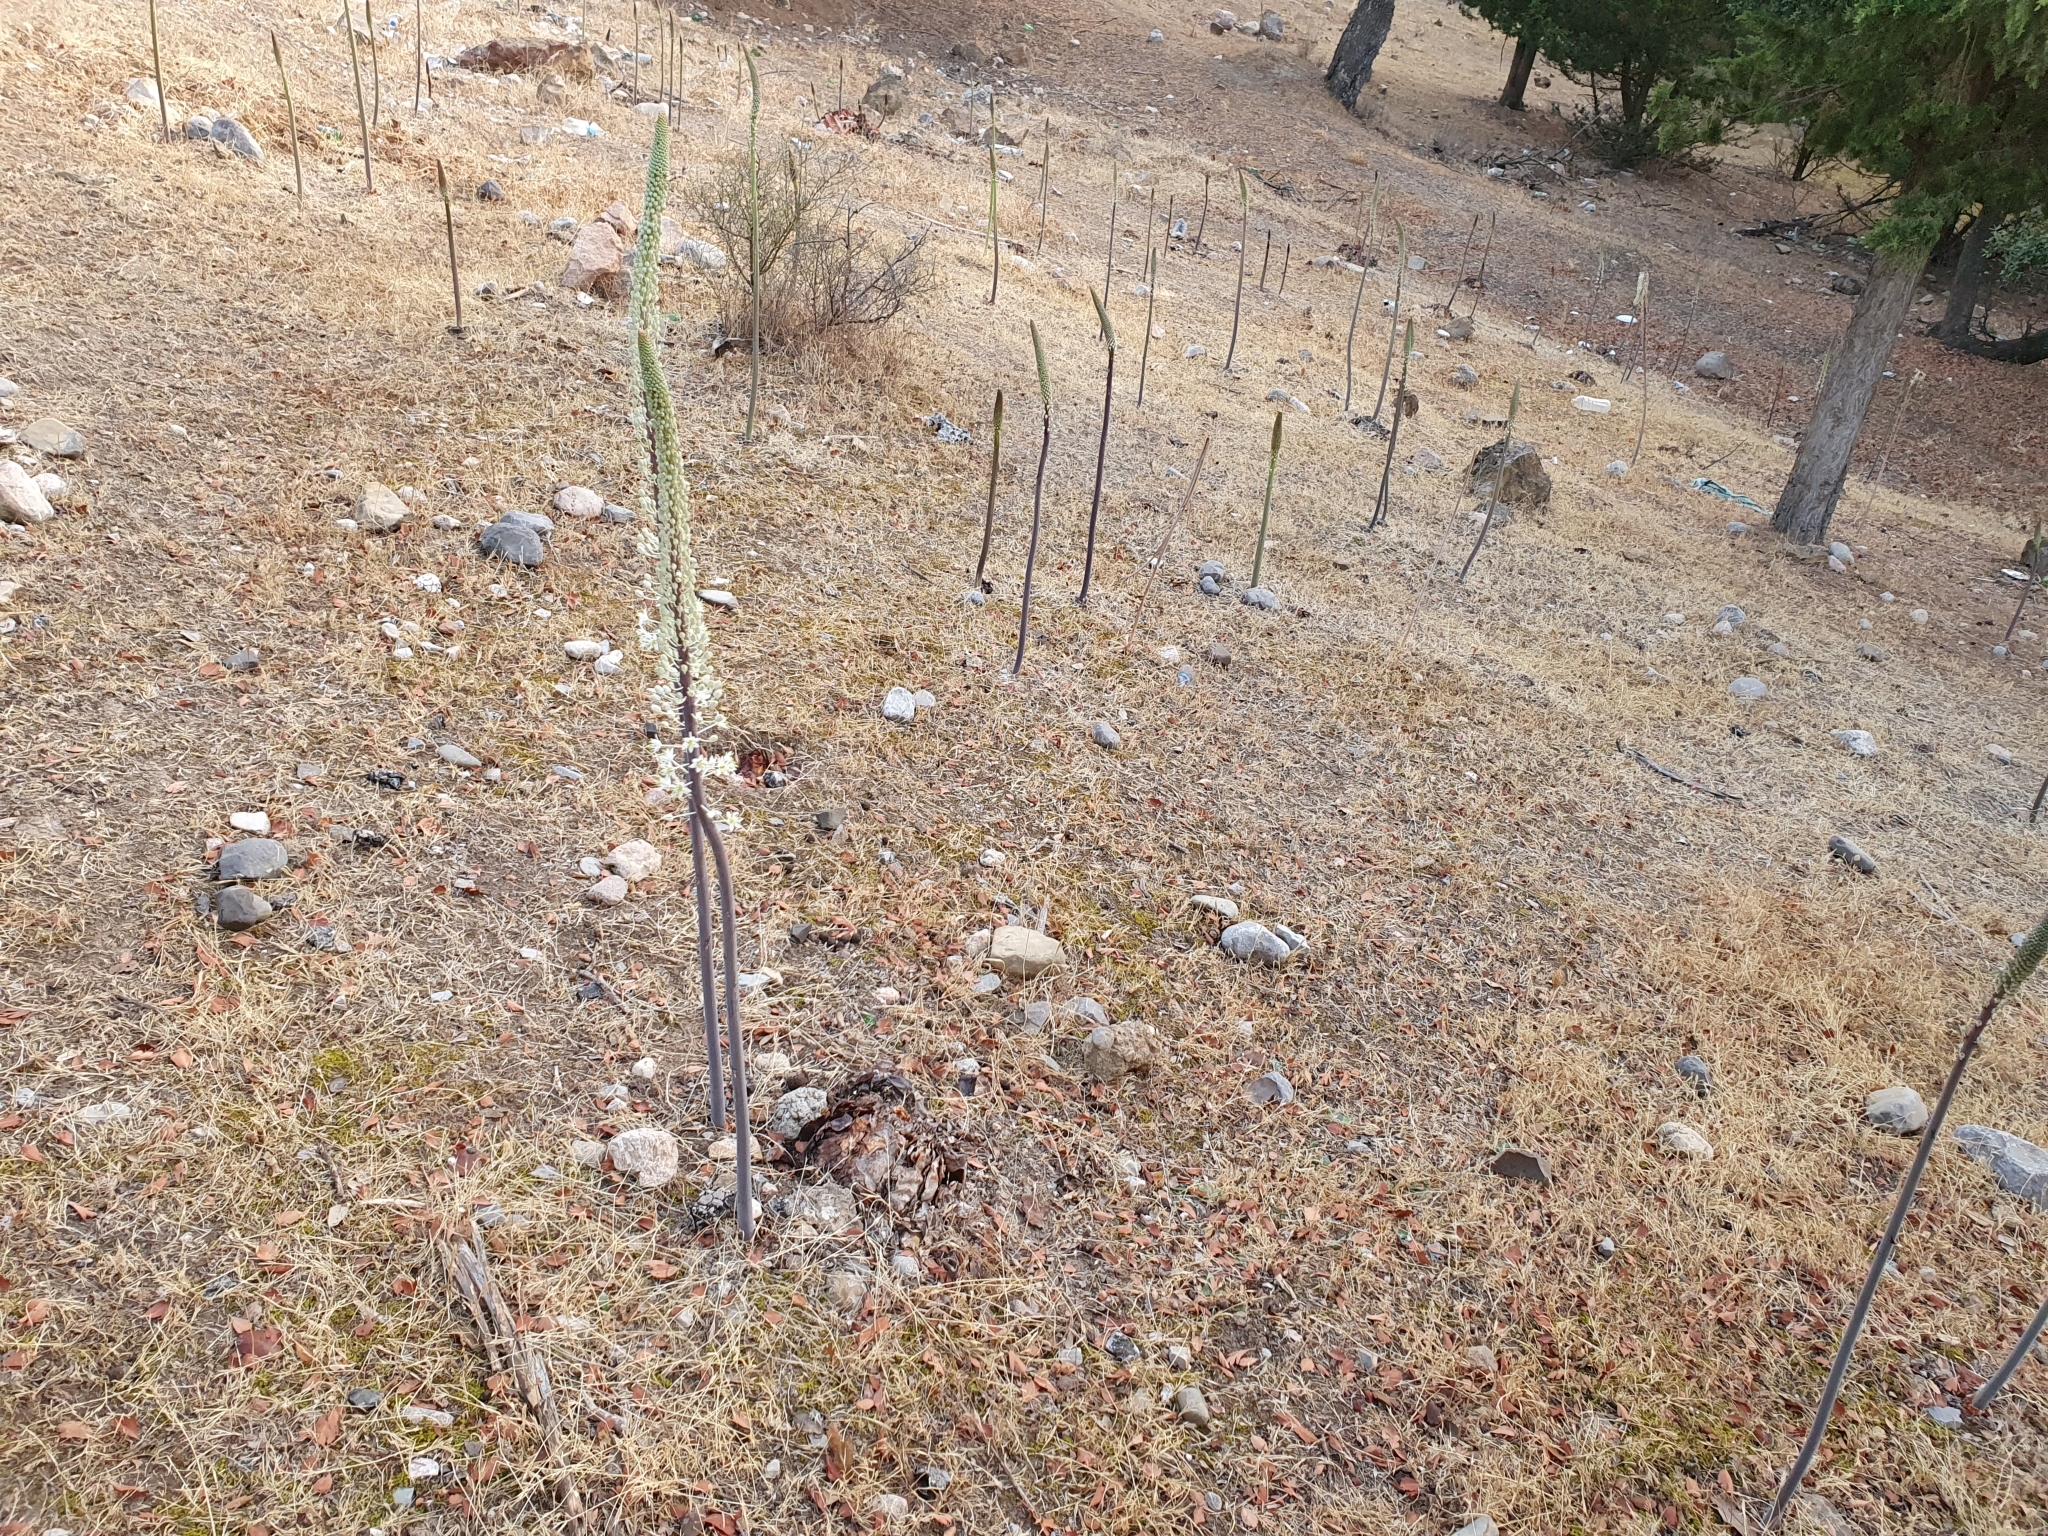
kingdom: Plantae
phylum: Tracheophyta
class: Liliopsida
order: Asparagales
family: Asparagaceae
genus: Drimia
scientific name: Drimia numidica
